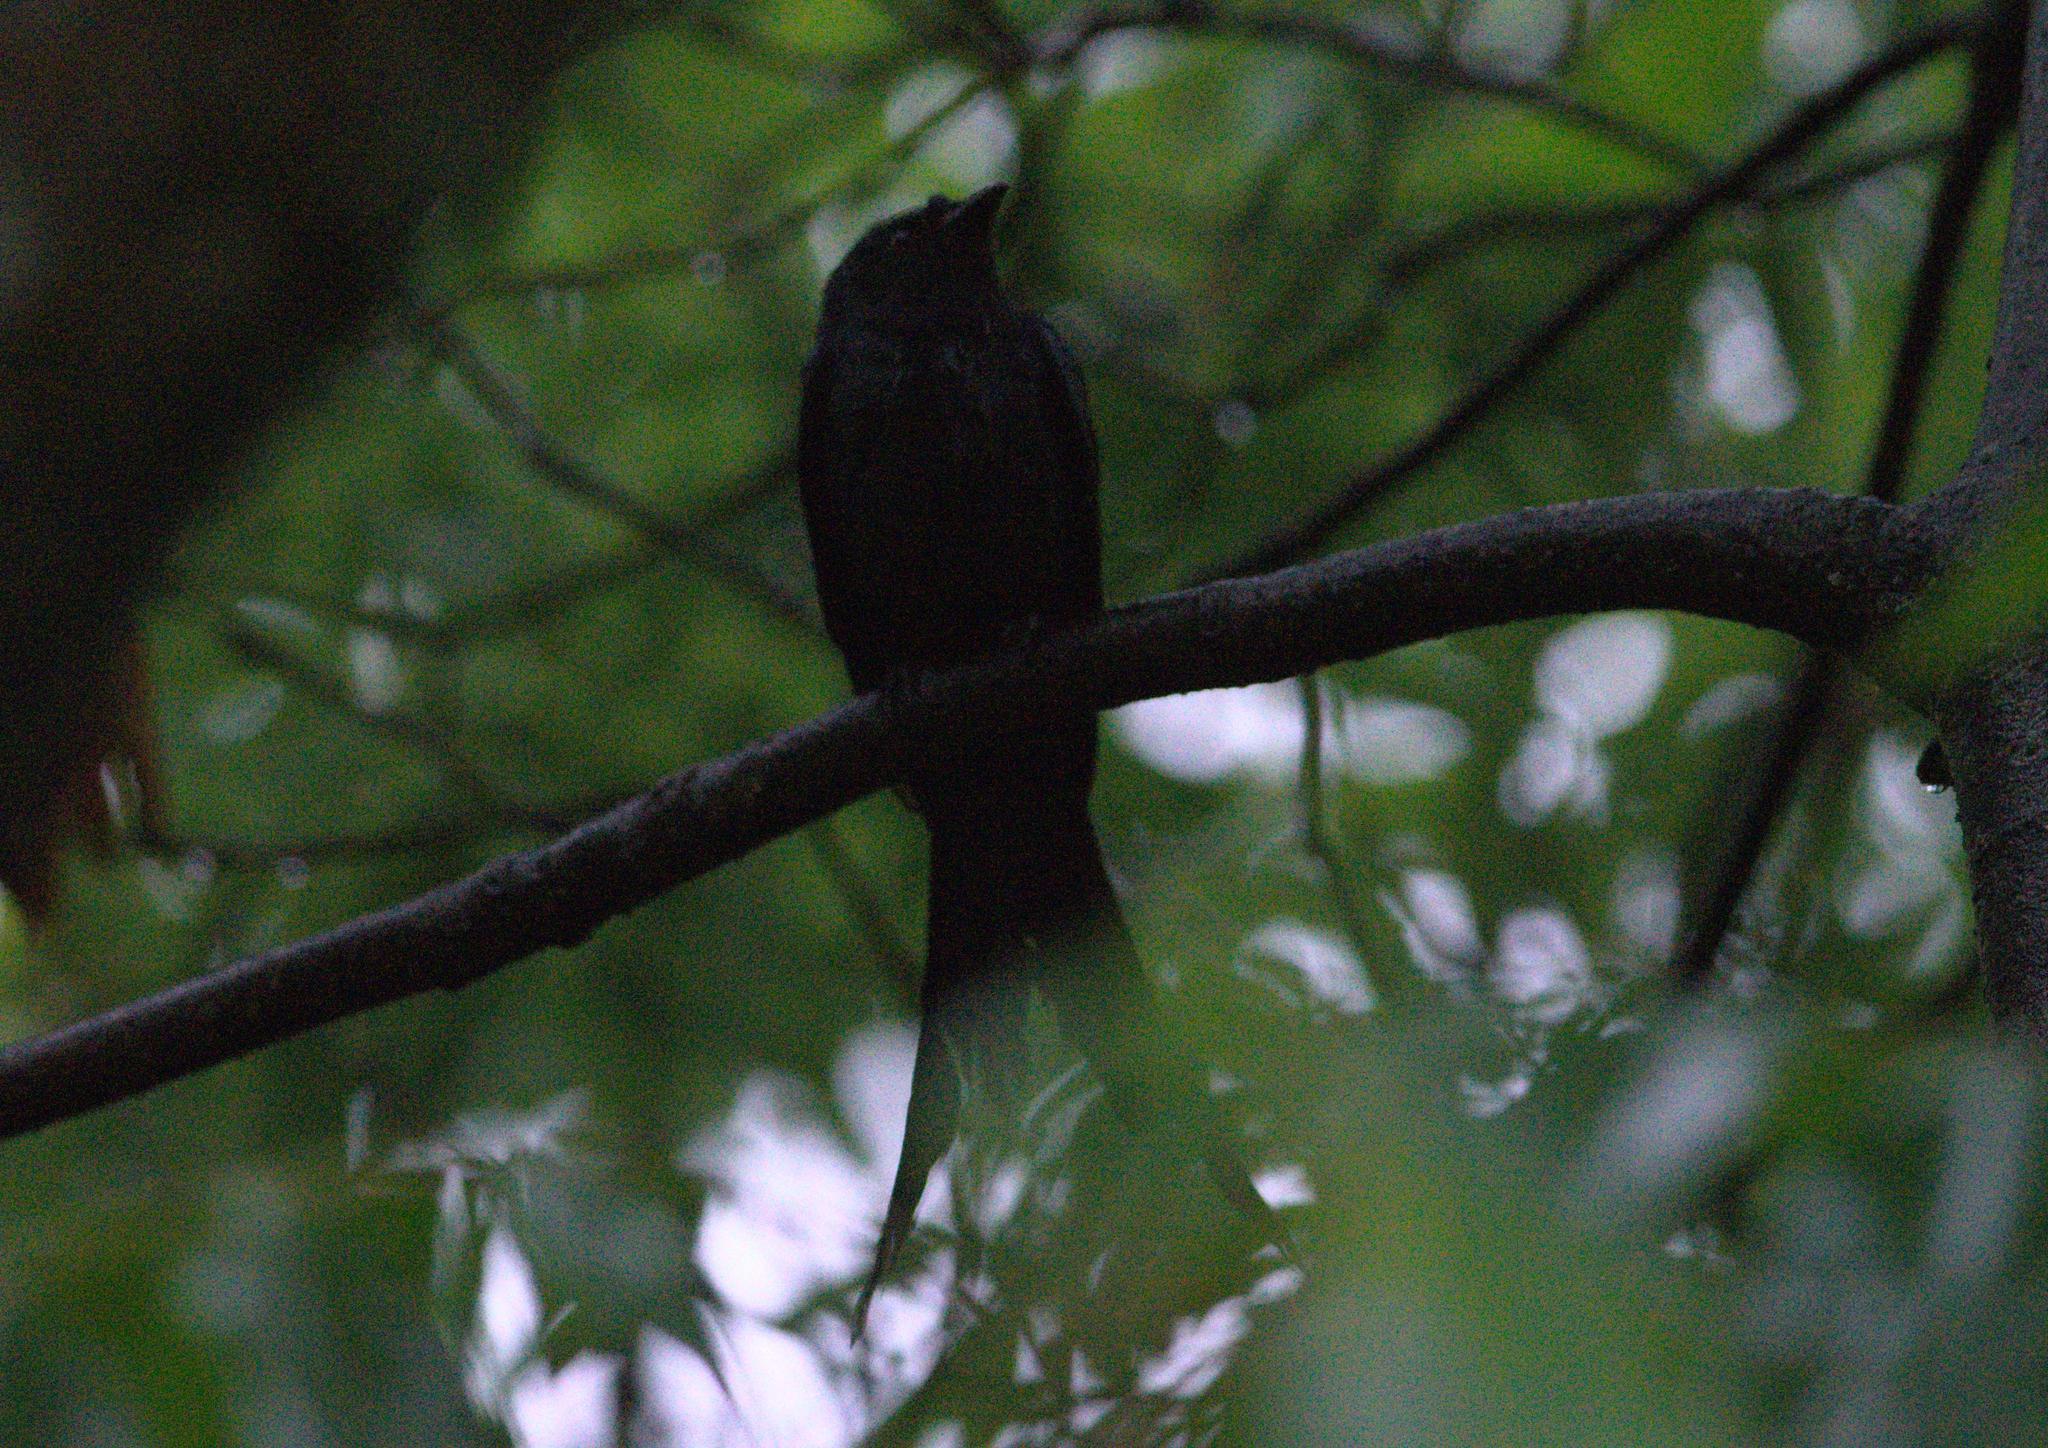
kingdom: Animalia
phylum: Chordata
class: Aves
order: Passeriformes
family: Dicruridae
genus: Dicrurus
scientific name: Dicrurus leucophaeus
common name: Ashy drongo
